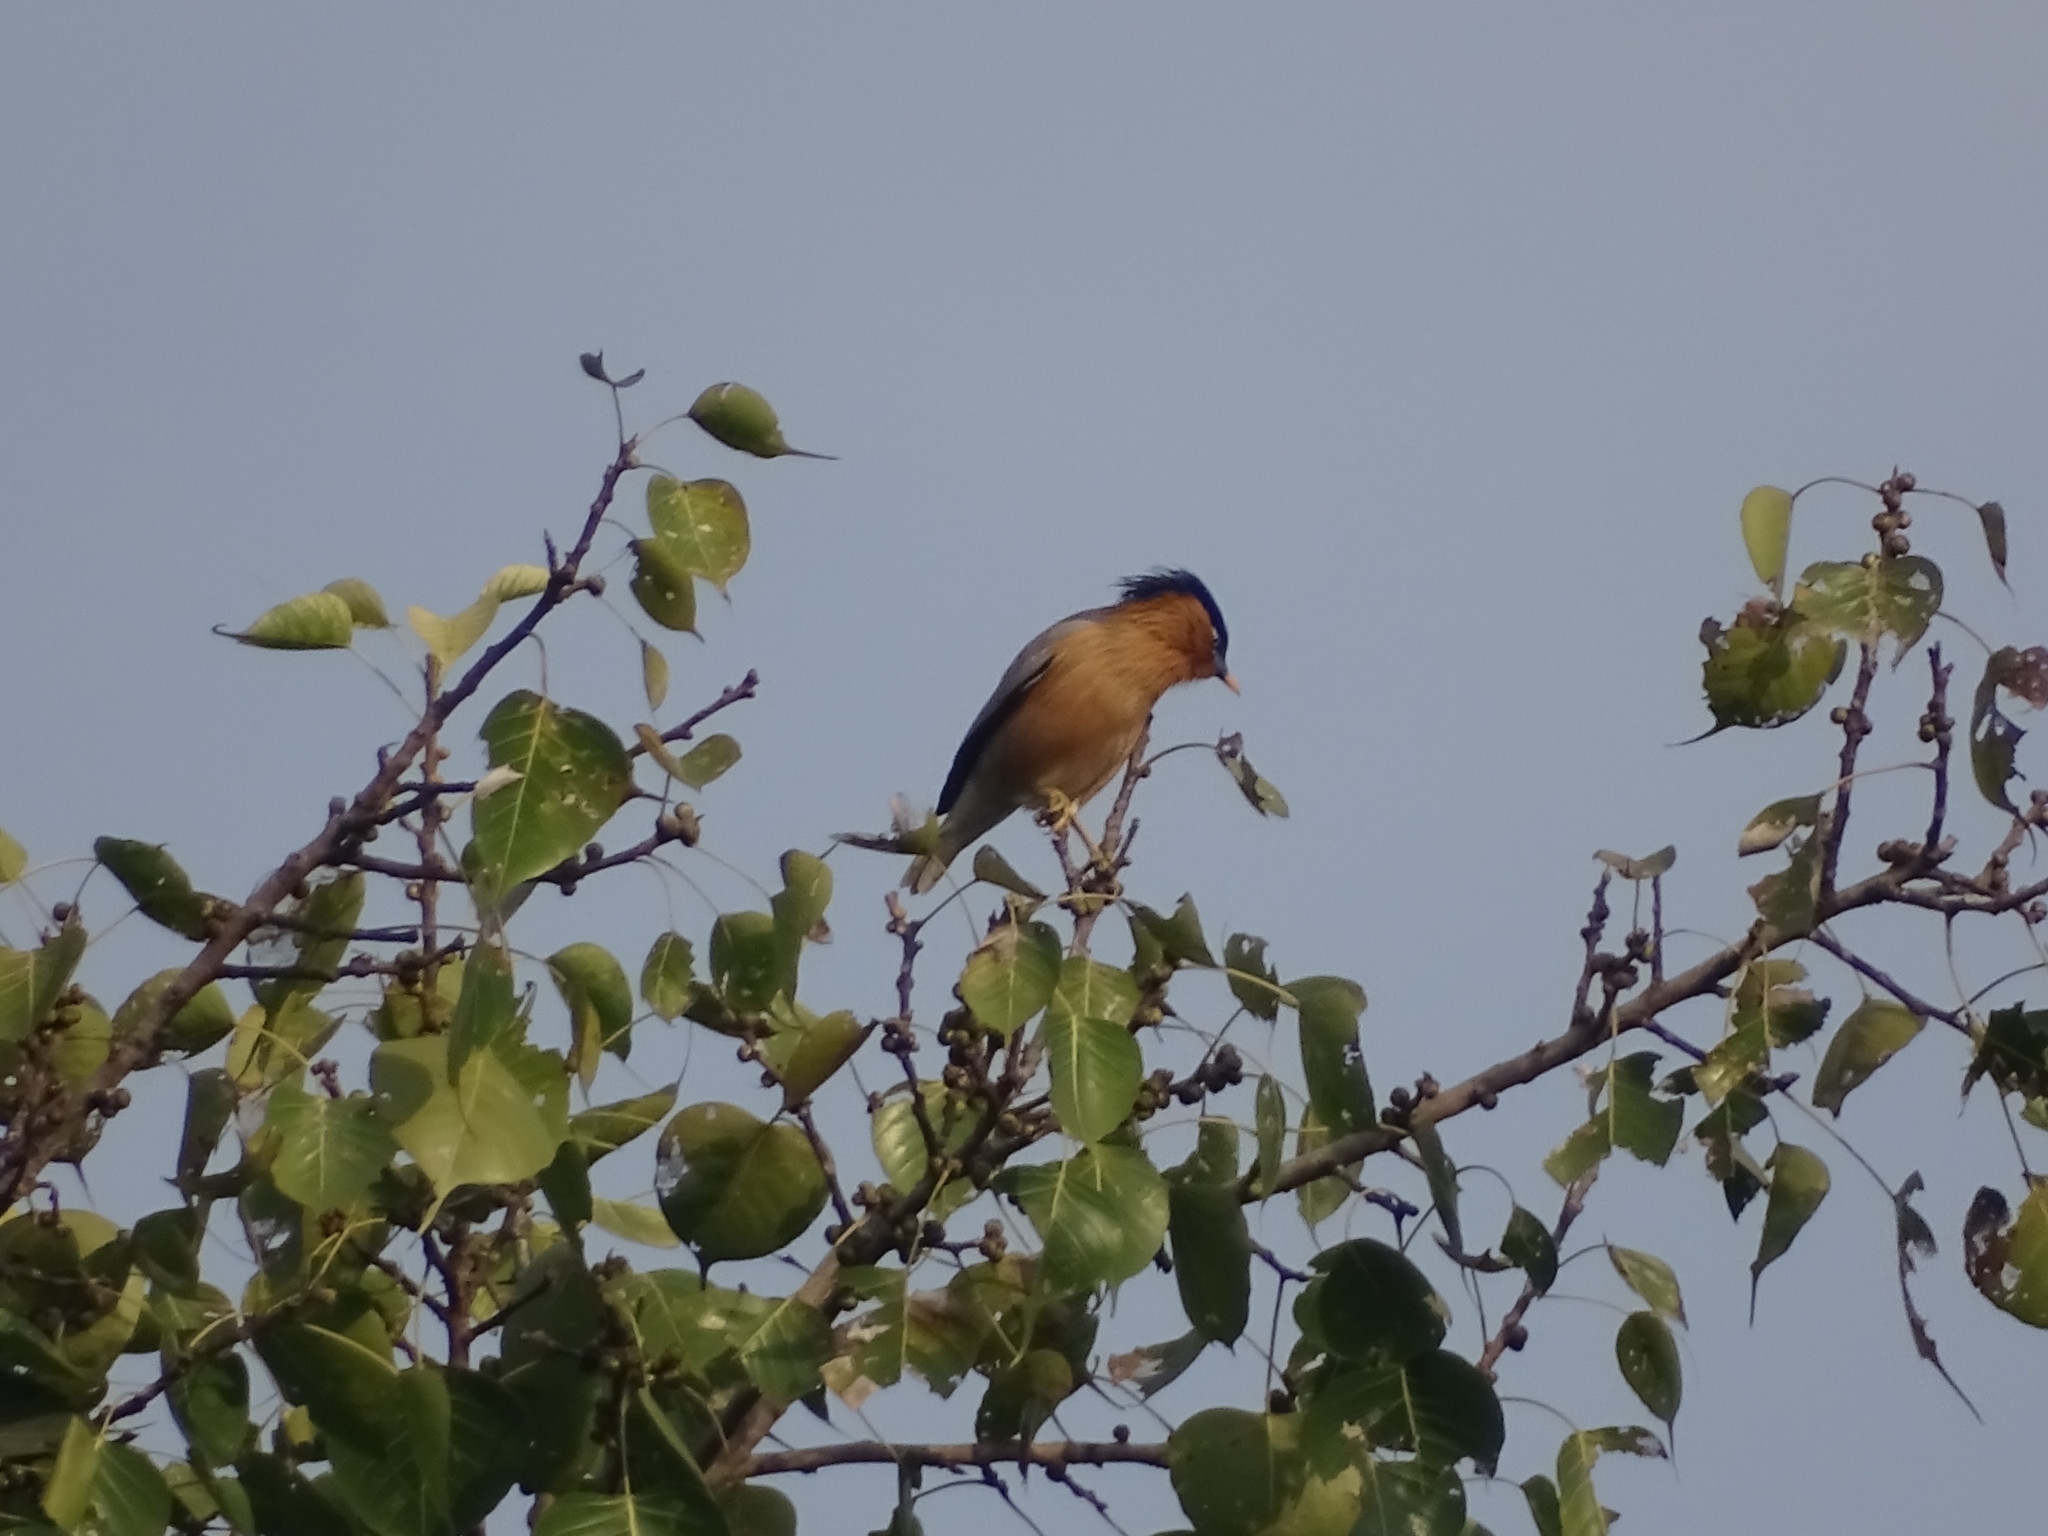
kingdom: Animalia
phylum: Chordata
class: Aves
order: Passeriformes
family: Sturnidae
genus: Sturnia
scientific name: Sturnia pagodarum
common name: Brahminy starling
